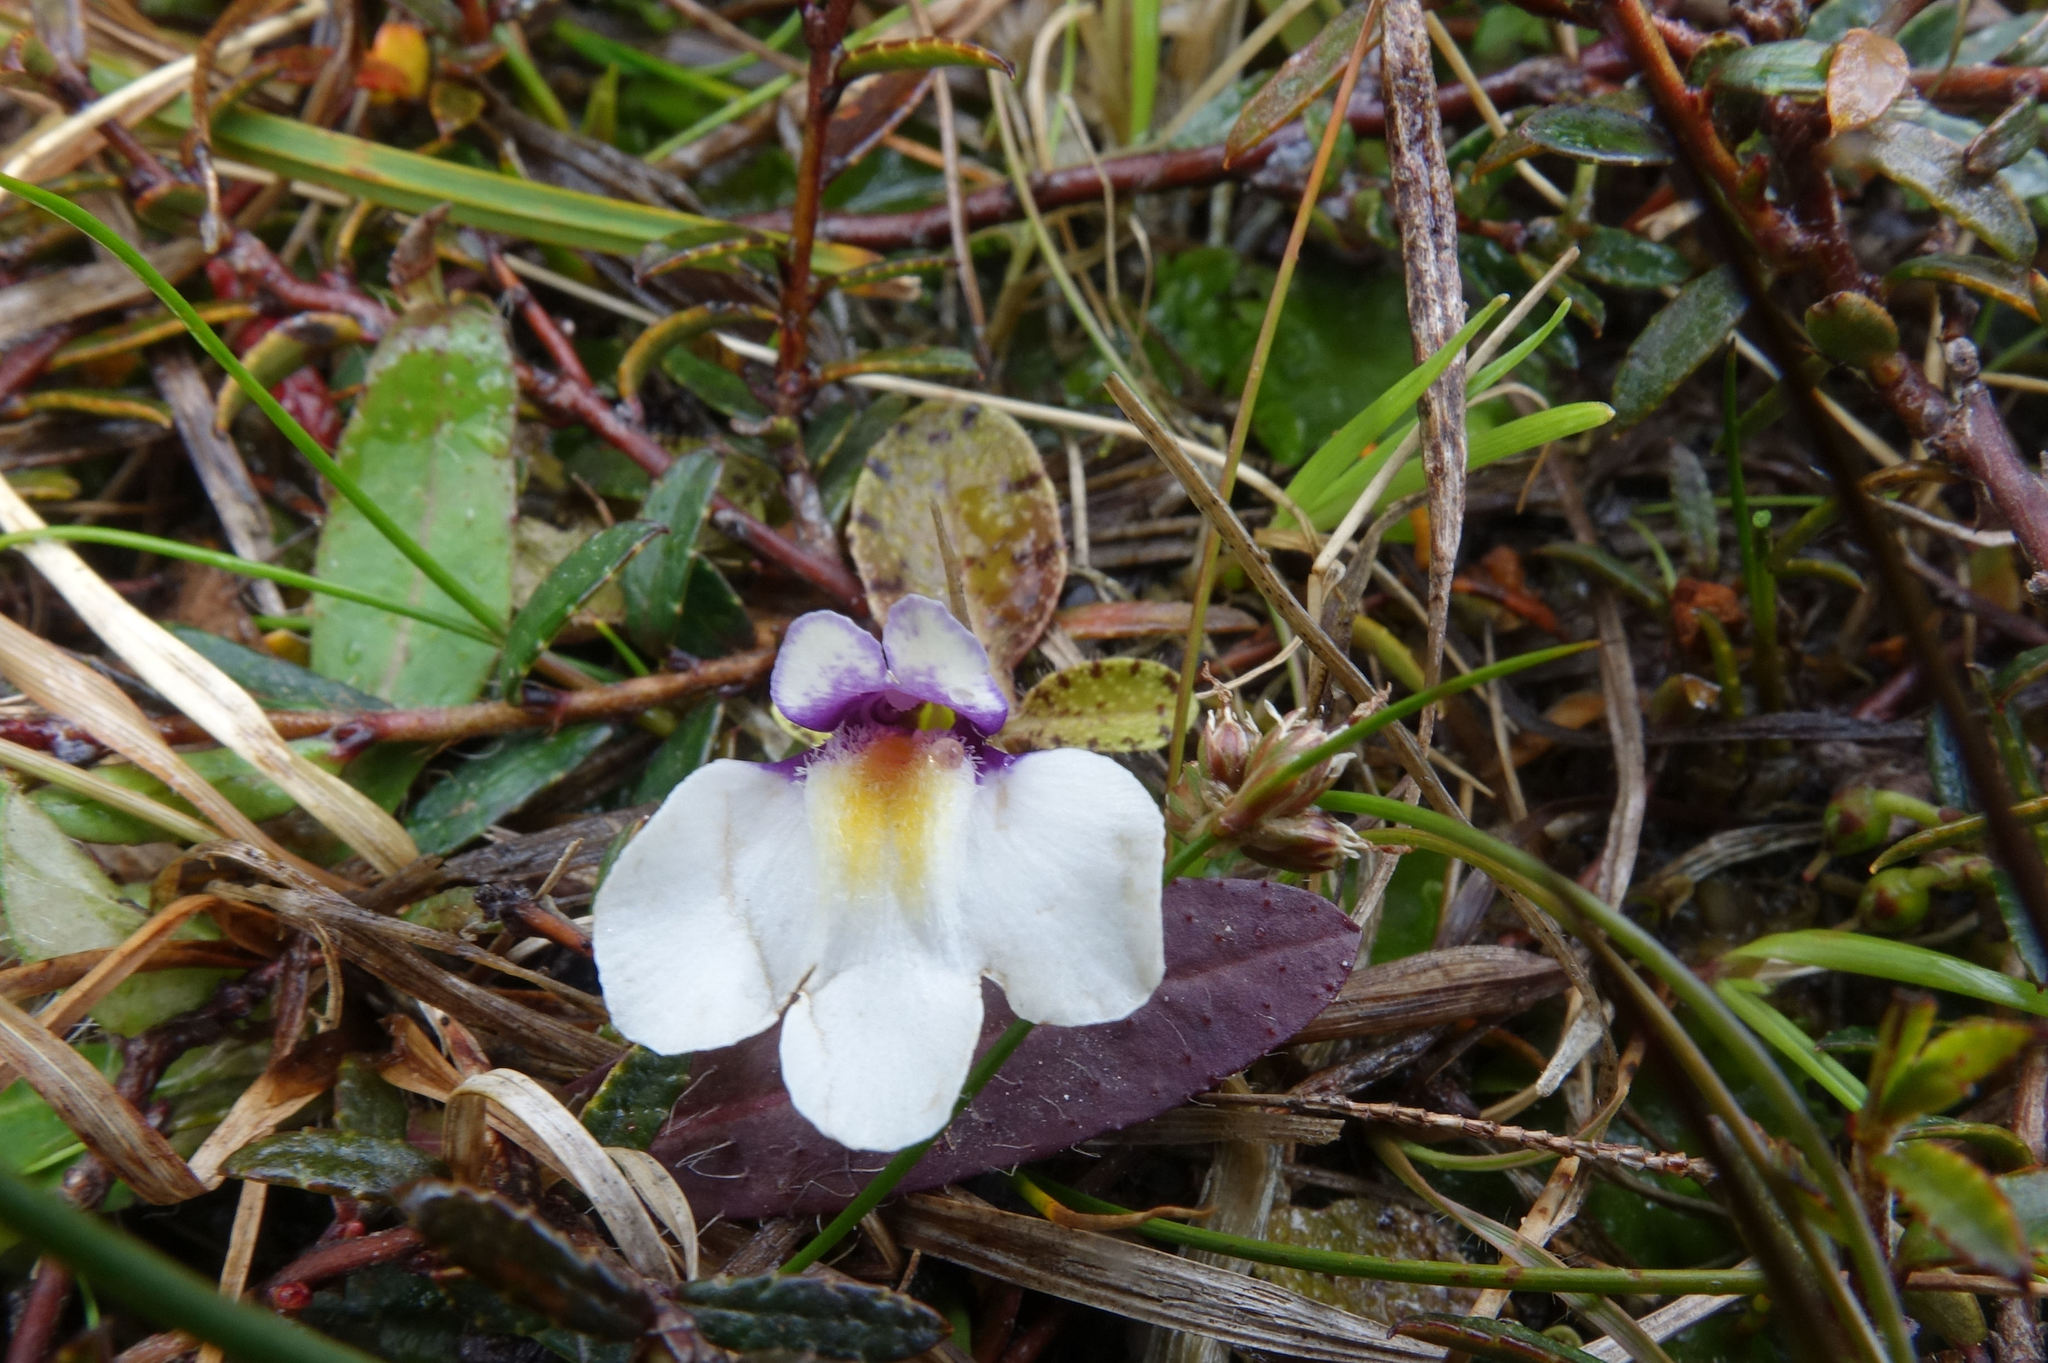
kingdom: Plantae
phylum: Tracheophyta
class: Magnoliopsida
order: Lamiales
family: Mazaceae
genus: Mazus
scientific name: Mazus radicans
